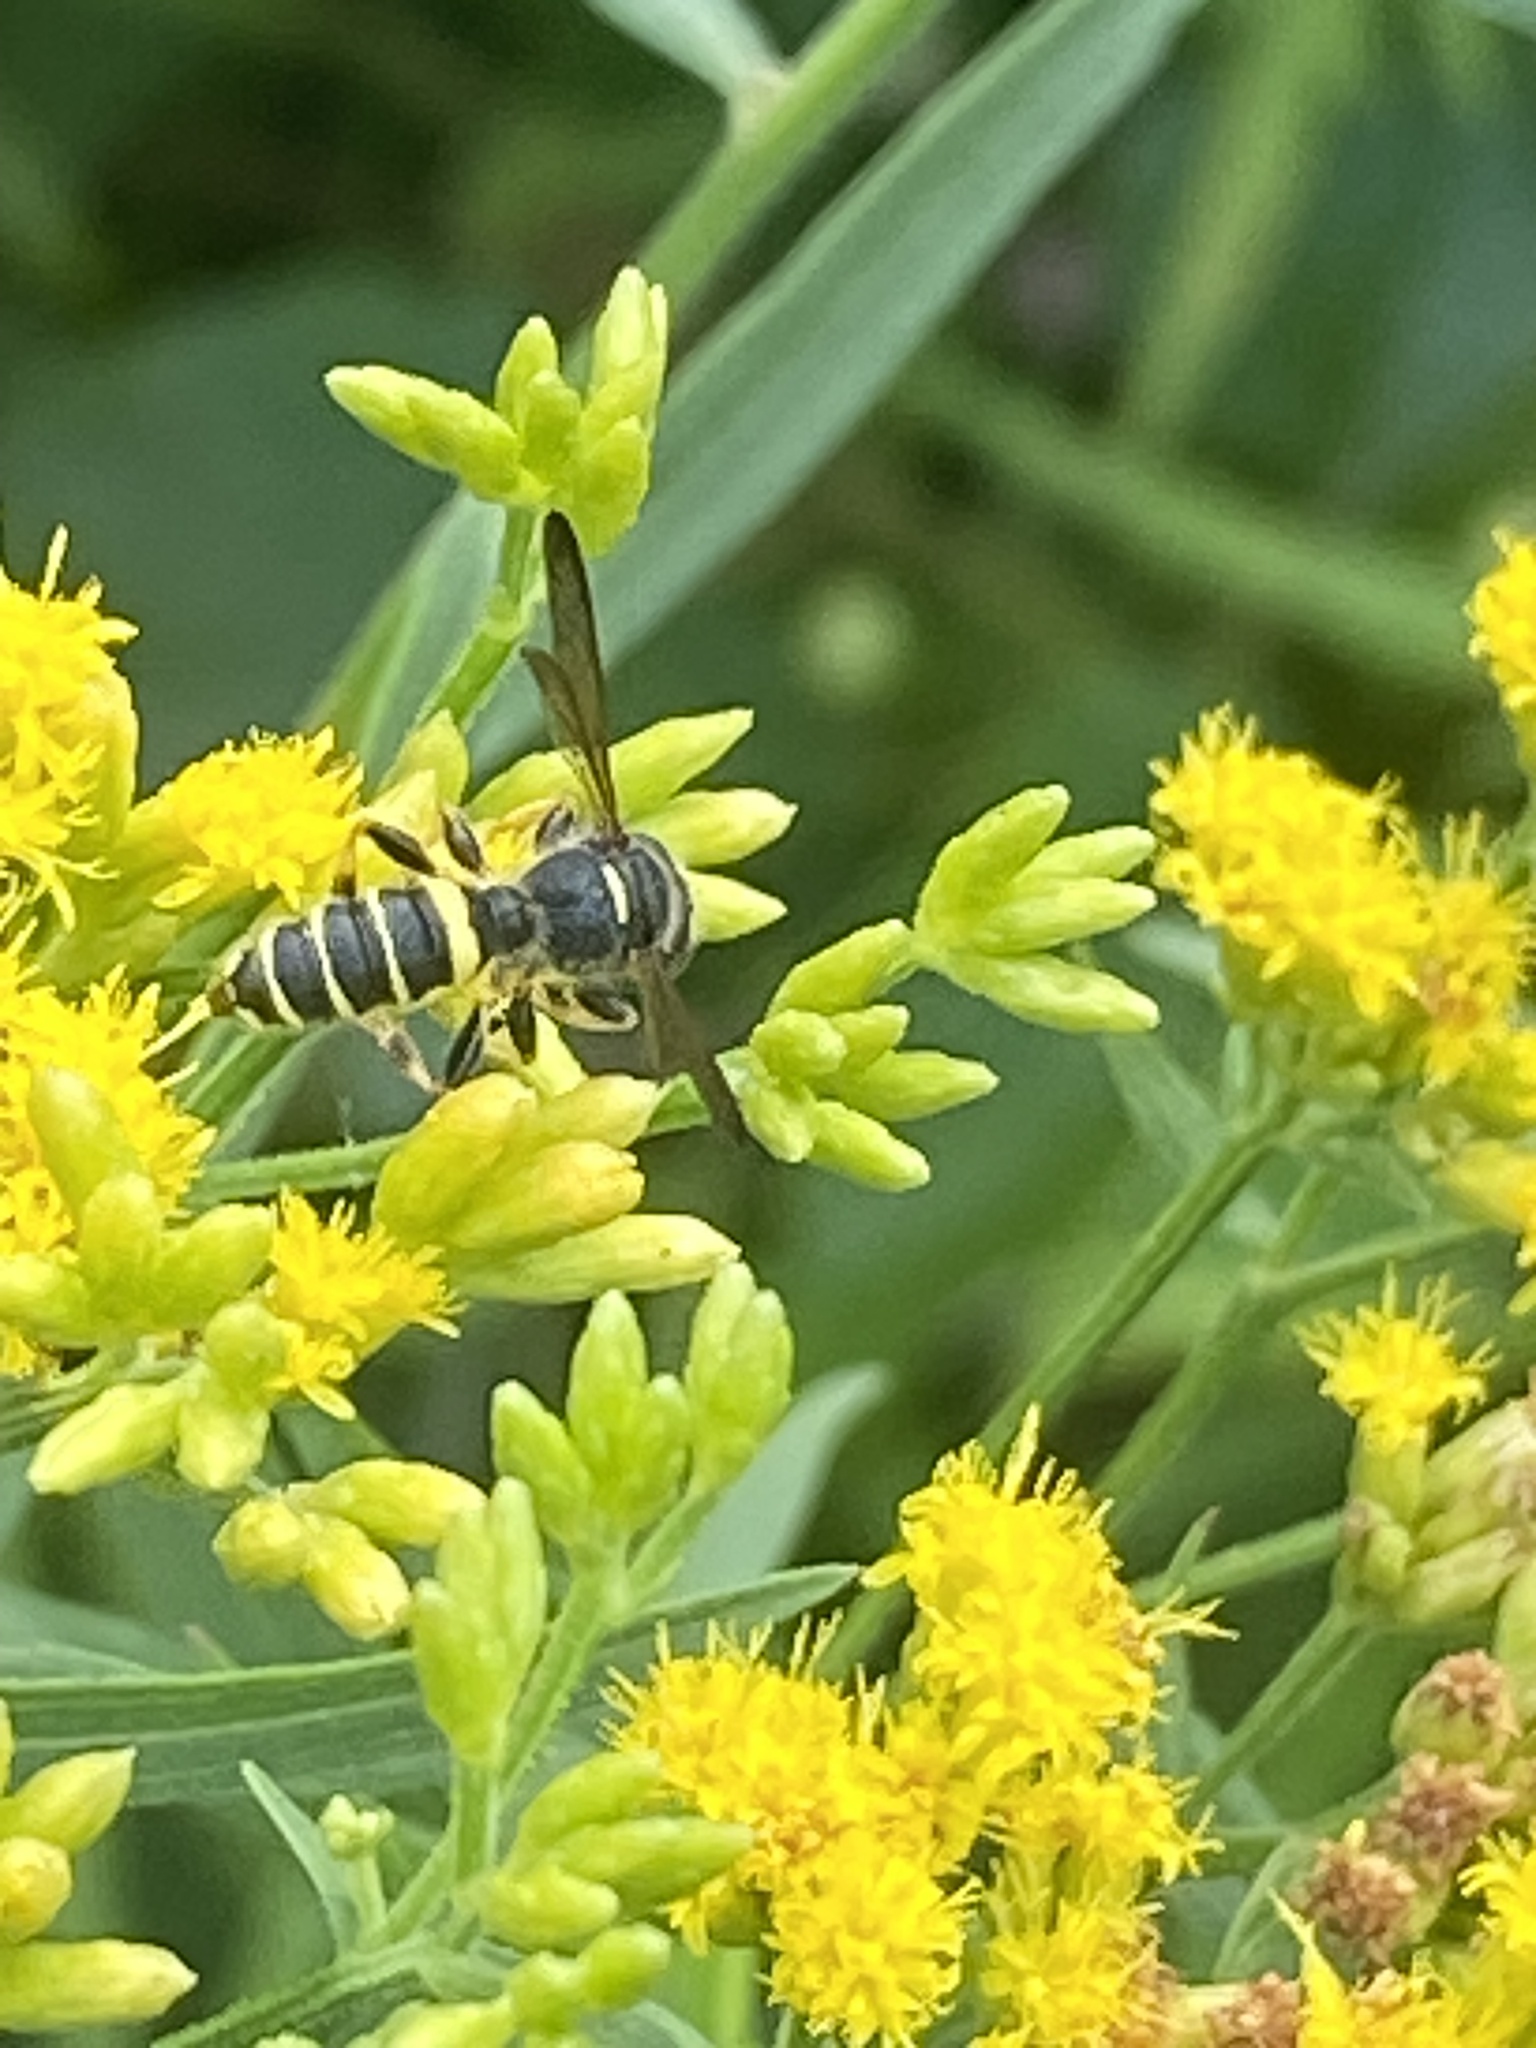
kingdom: Animalia
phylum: Arthropoda
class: Insecta
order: Hymenoptera
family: Crabronidae
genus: Cerceris
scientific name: Cerceris
